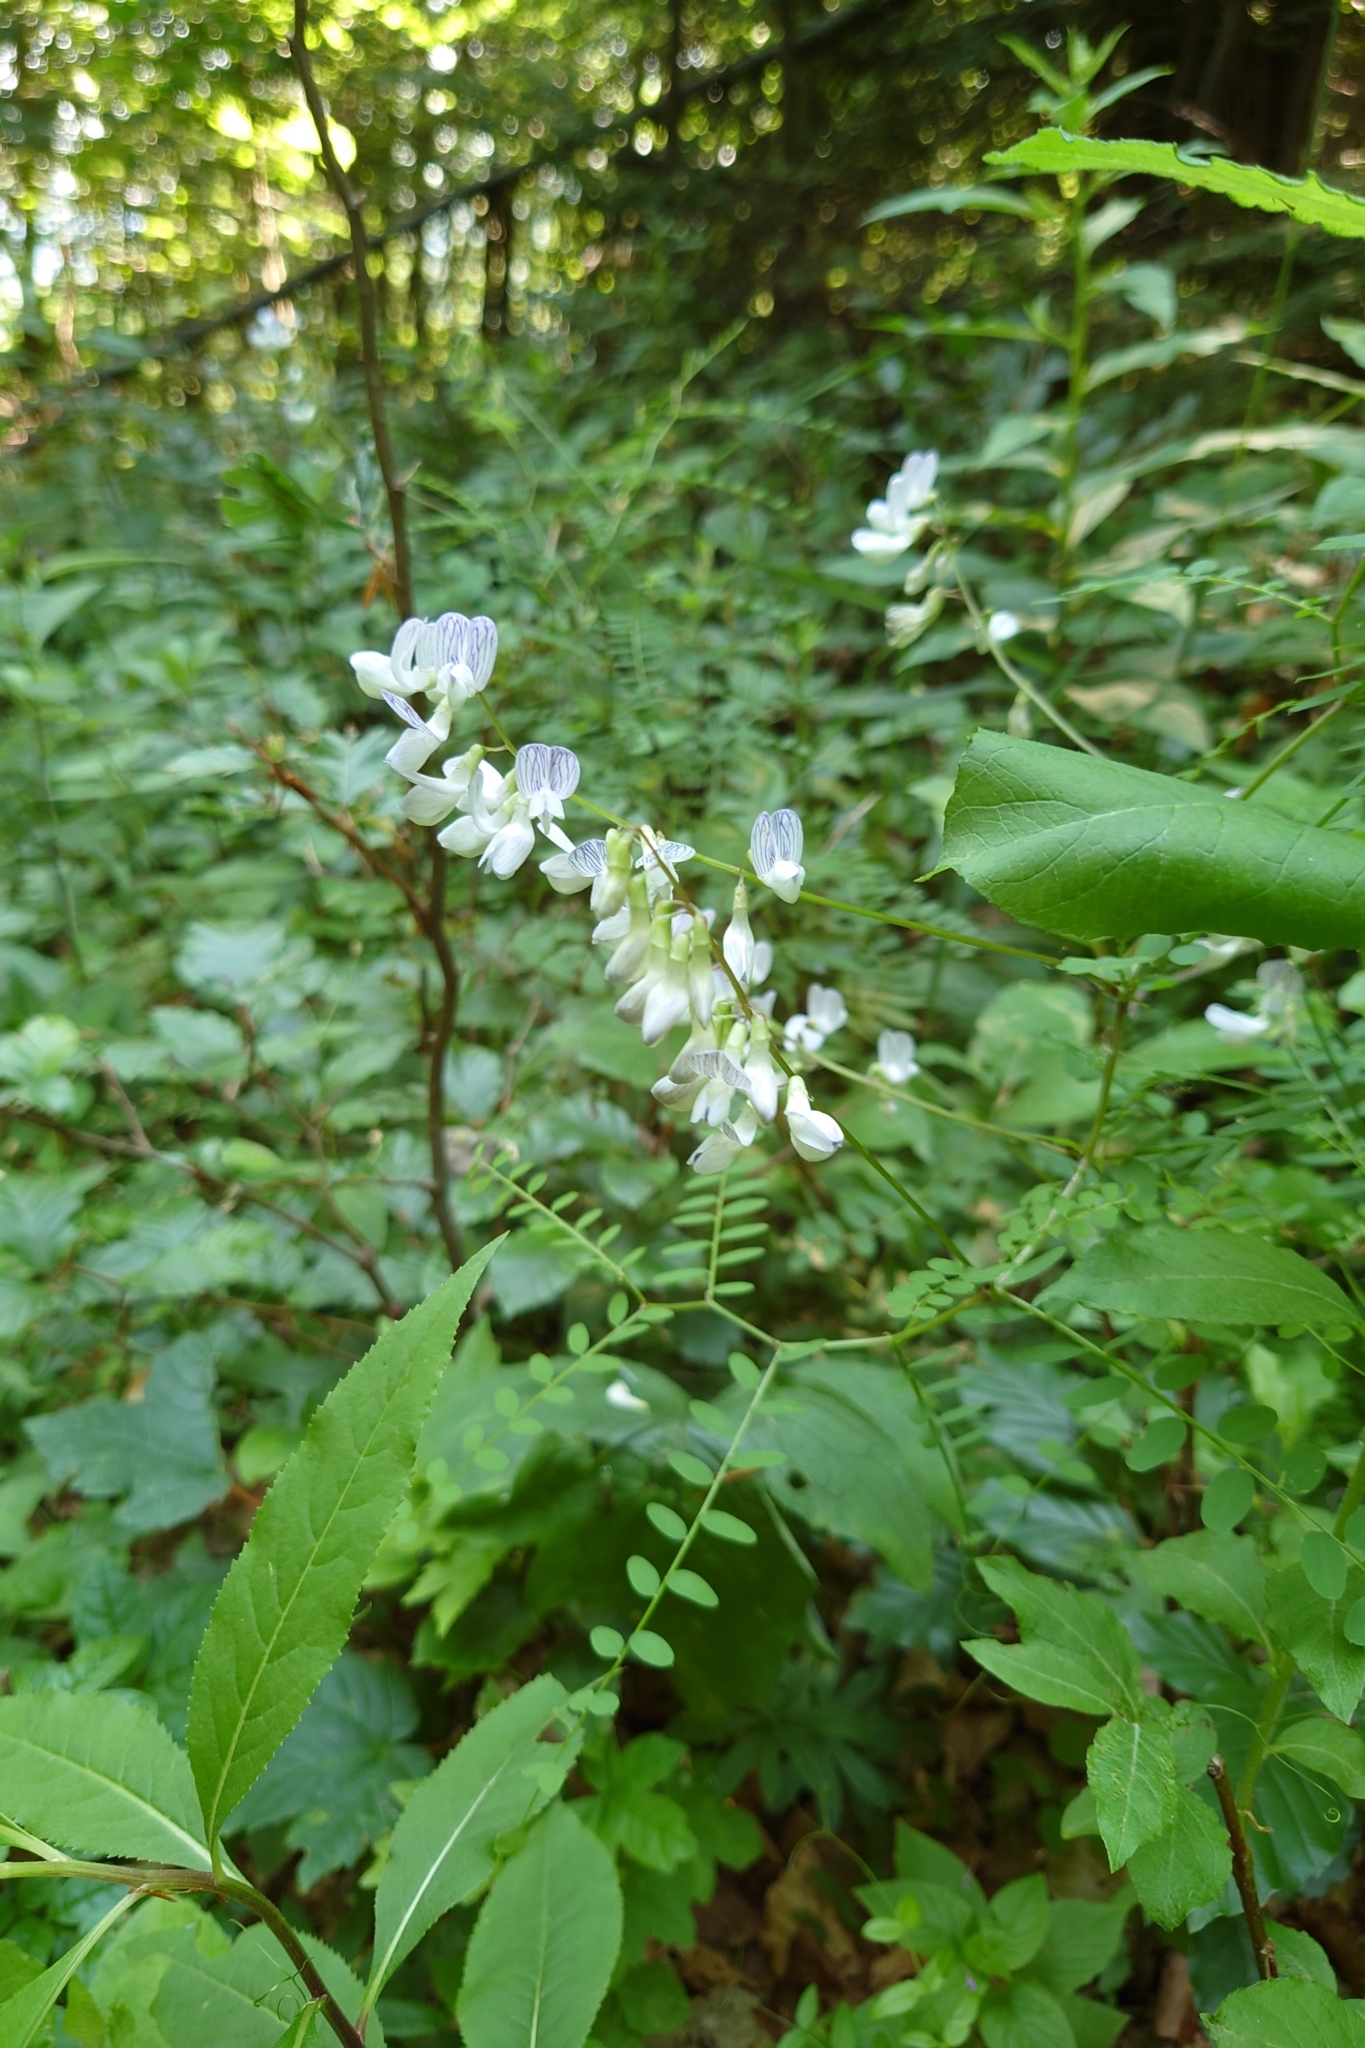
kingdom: Plantae
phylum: Tracheophyta
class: Magnoliopsida
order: Fabales
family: Fabaceae
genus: Vicia
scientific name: Vicia sylvatica
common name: Wood vetch
